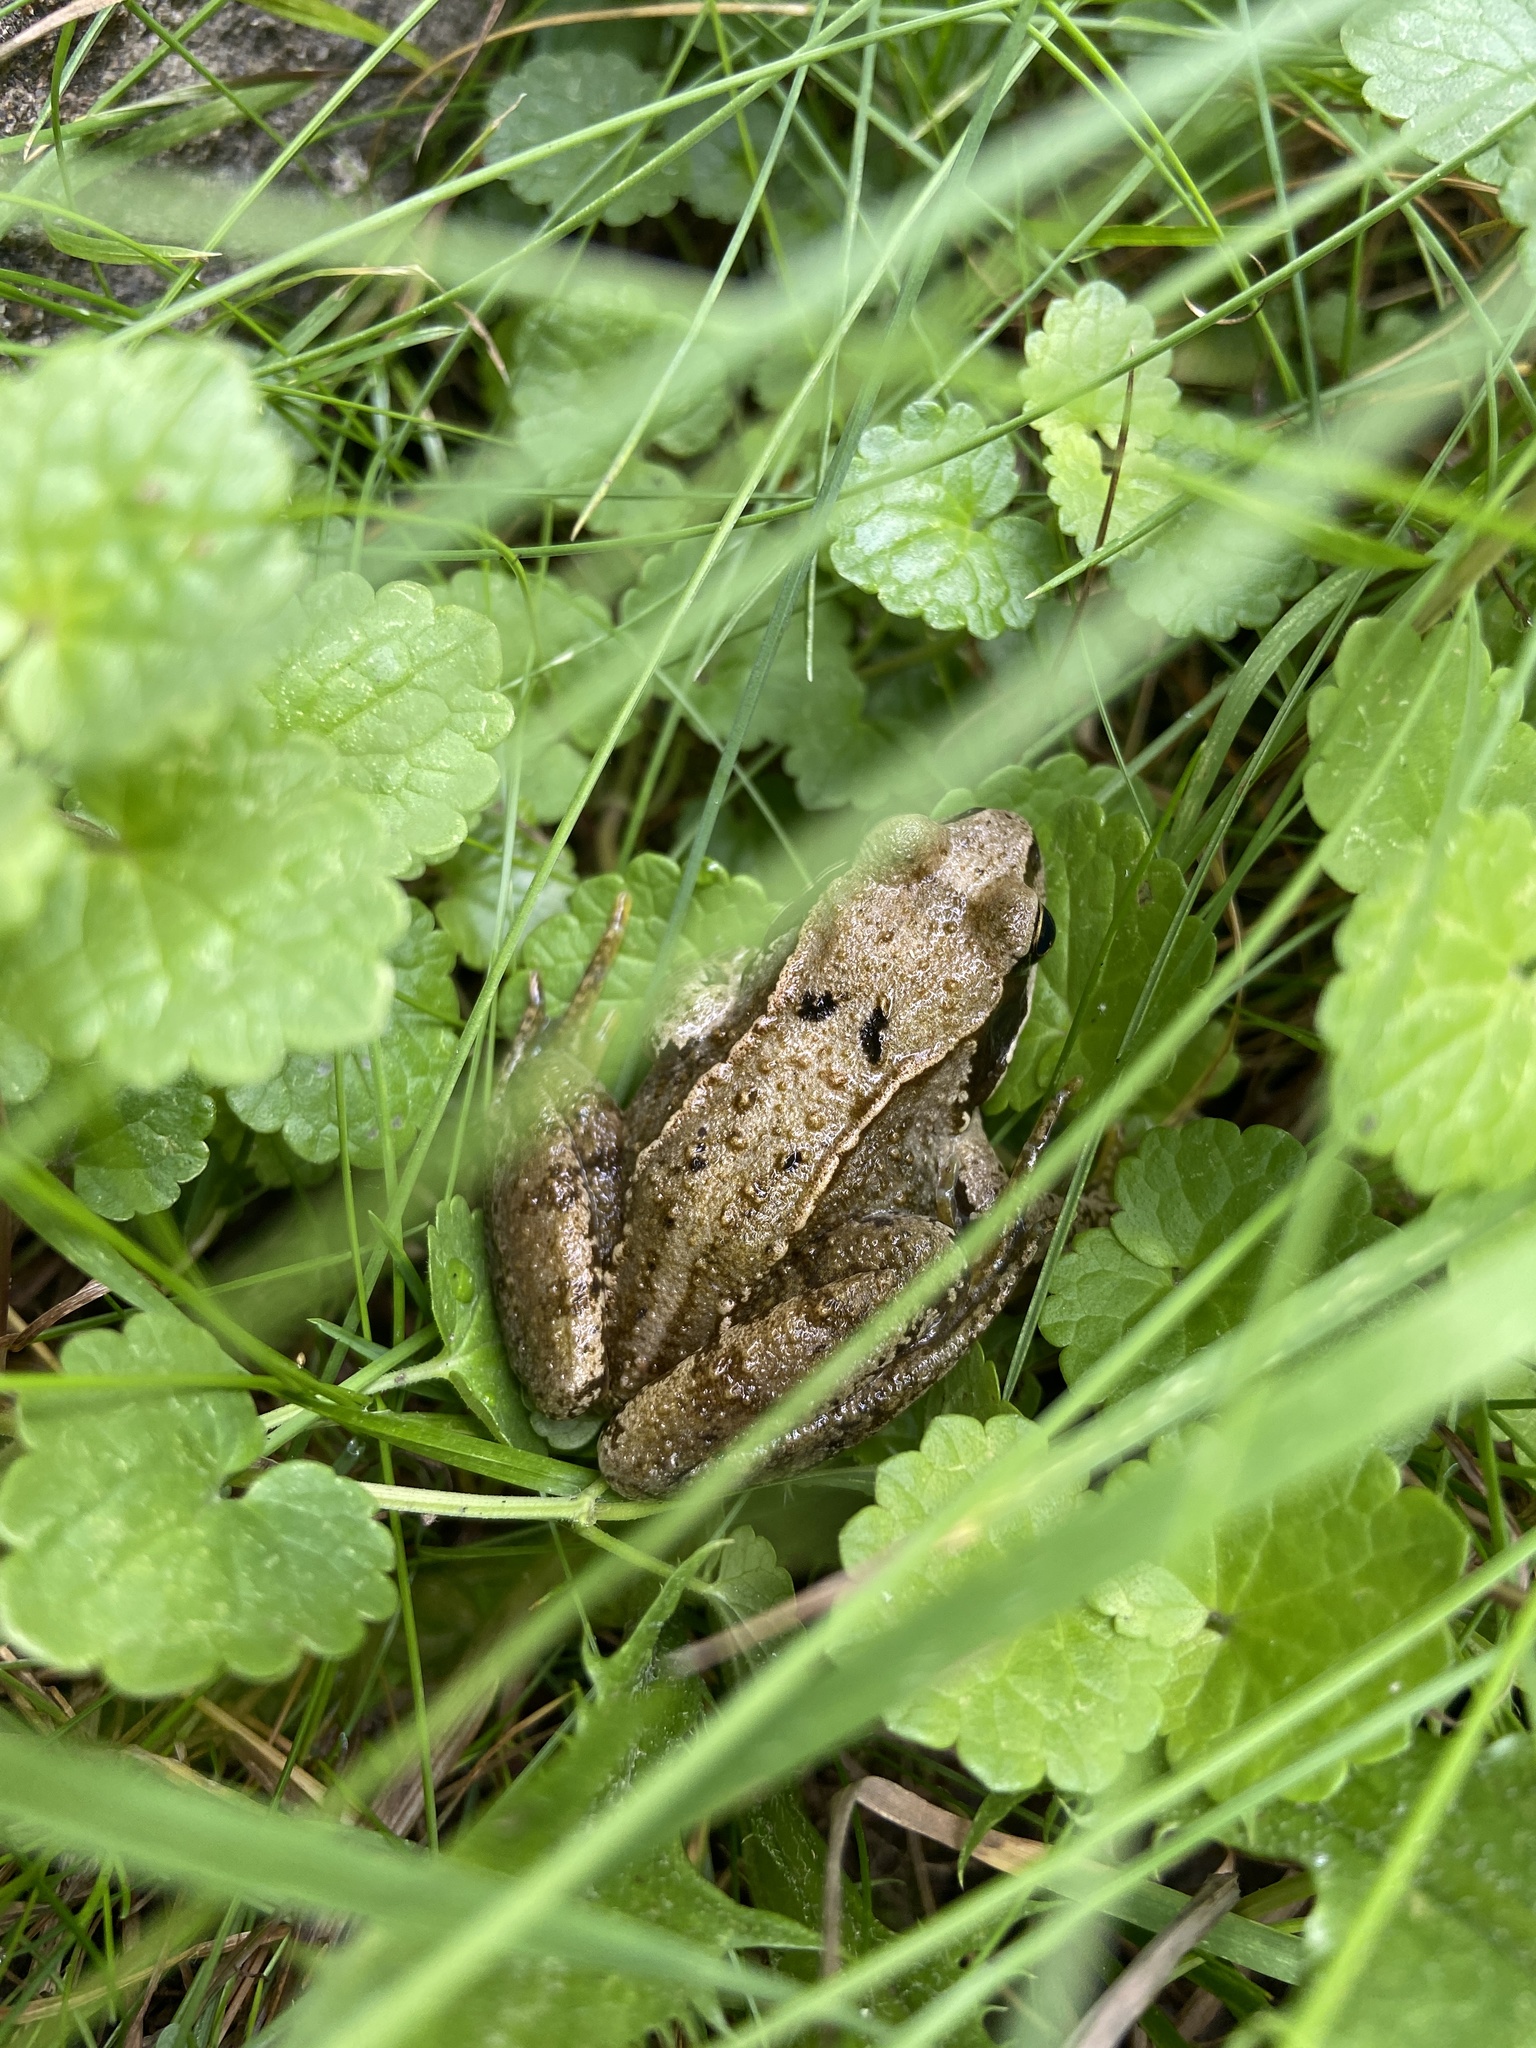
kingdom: Animalia
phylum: Chordata
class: Amphibia
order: Anura
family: Ranidae
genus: Rana
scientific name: Rana temporaria
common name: Common frog
